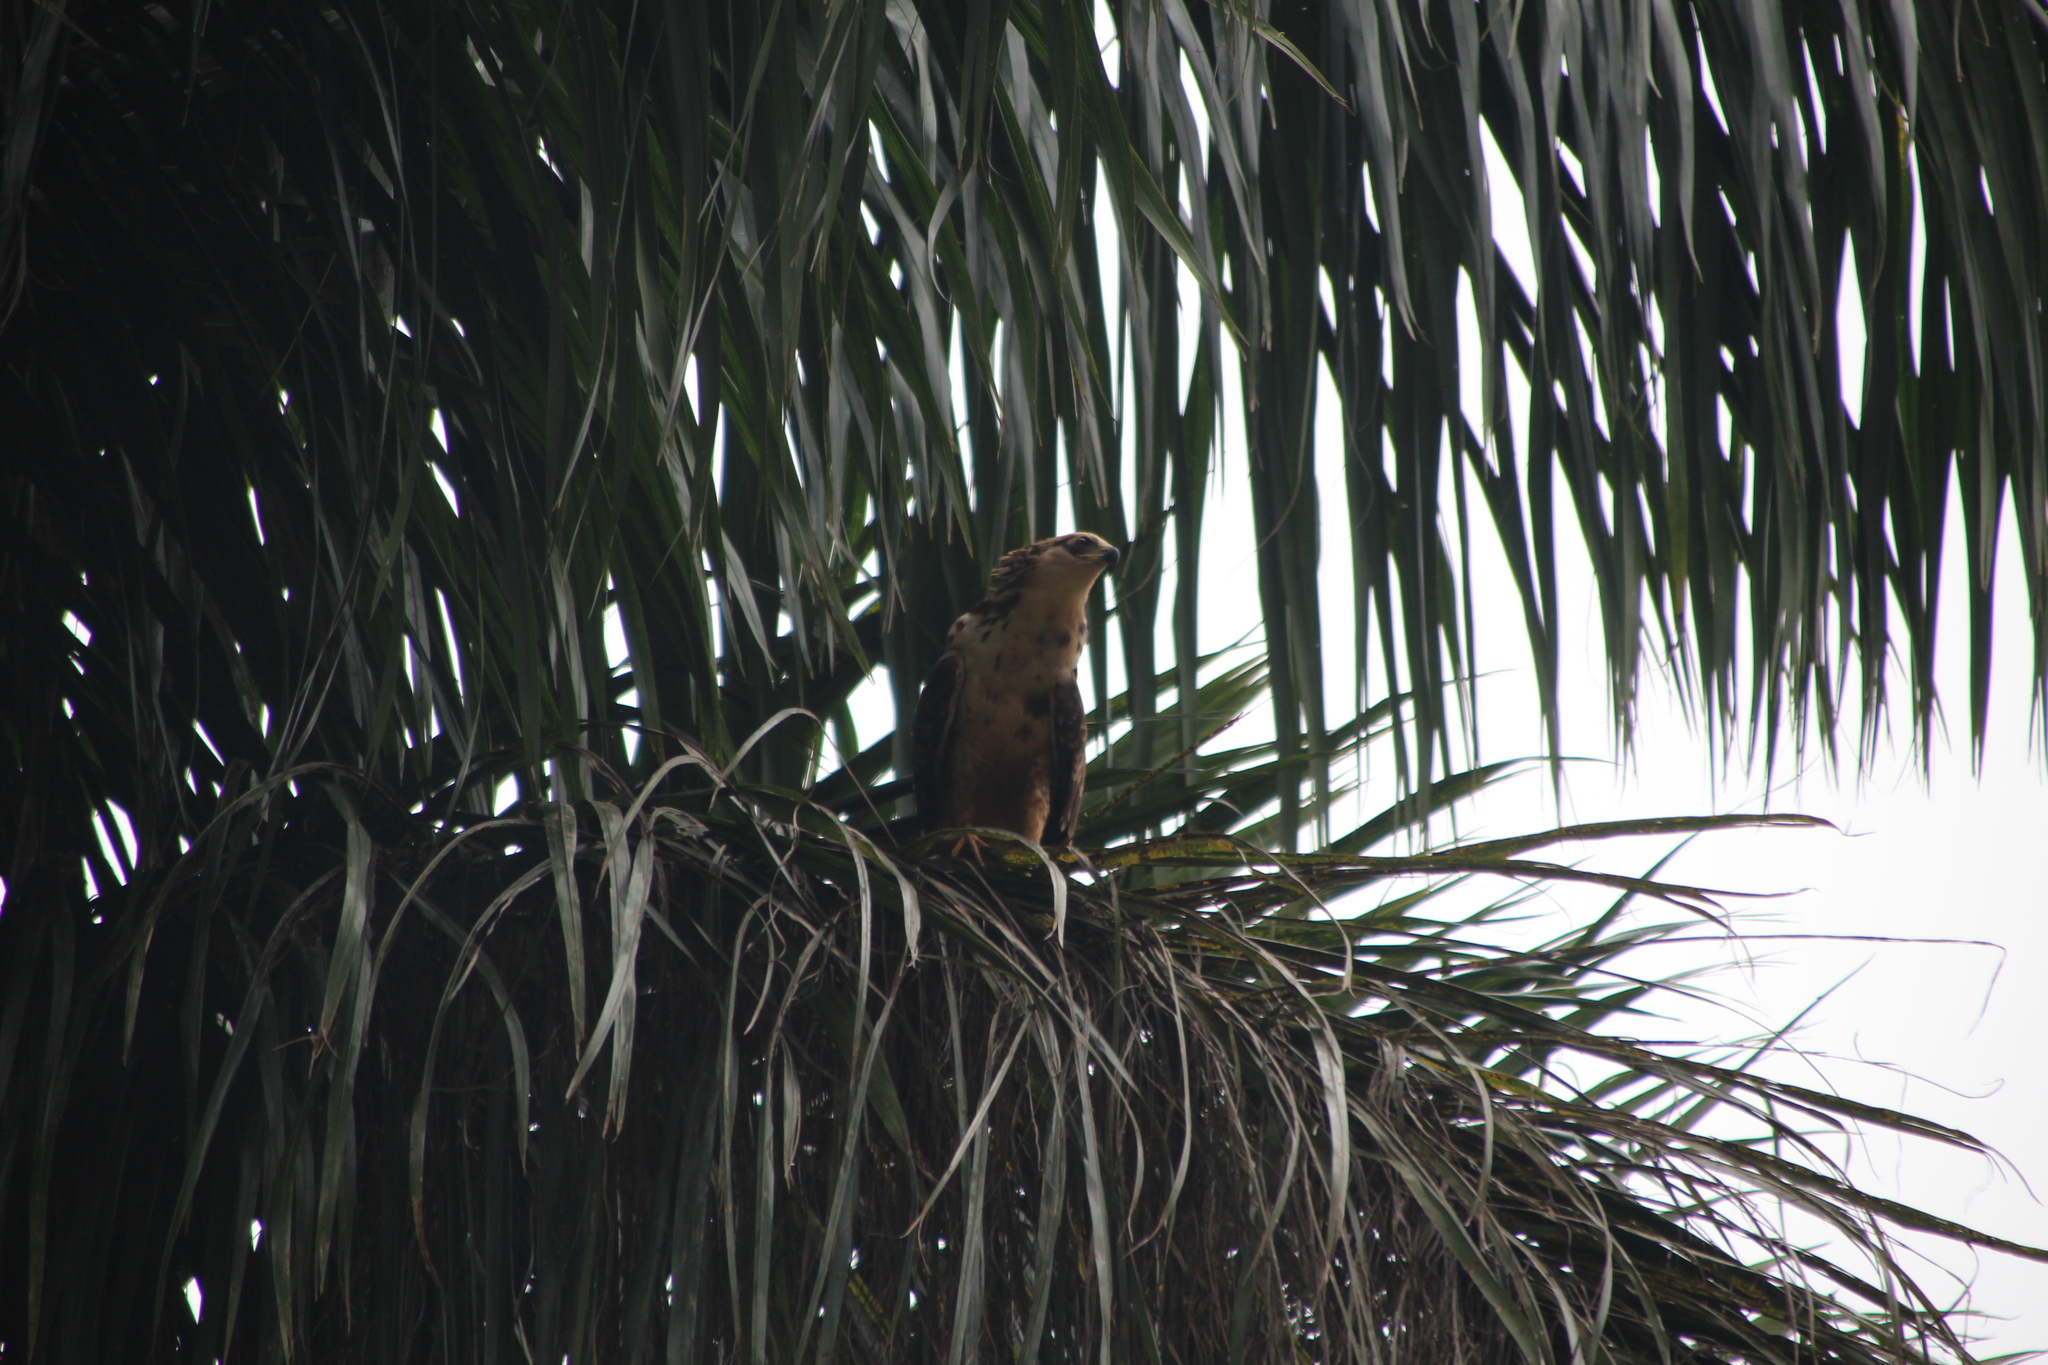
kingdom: Animalia
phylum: Chordata
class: Aves
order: Accipitriformes
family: Accipitridae
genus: Polyboroides
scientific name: Polyboroides typus
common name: African harrier-hawk
